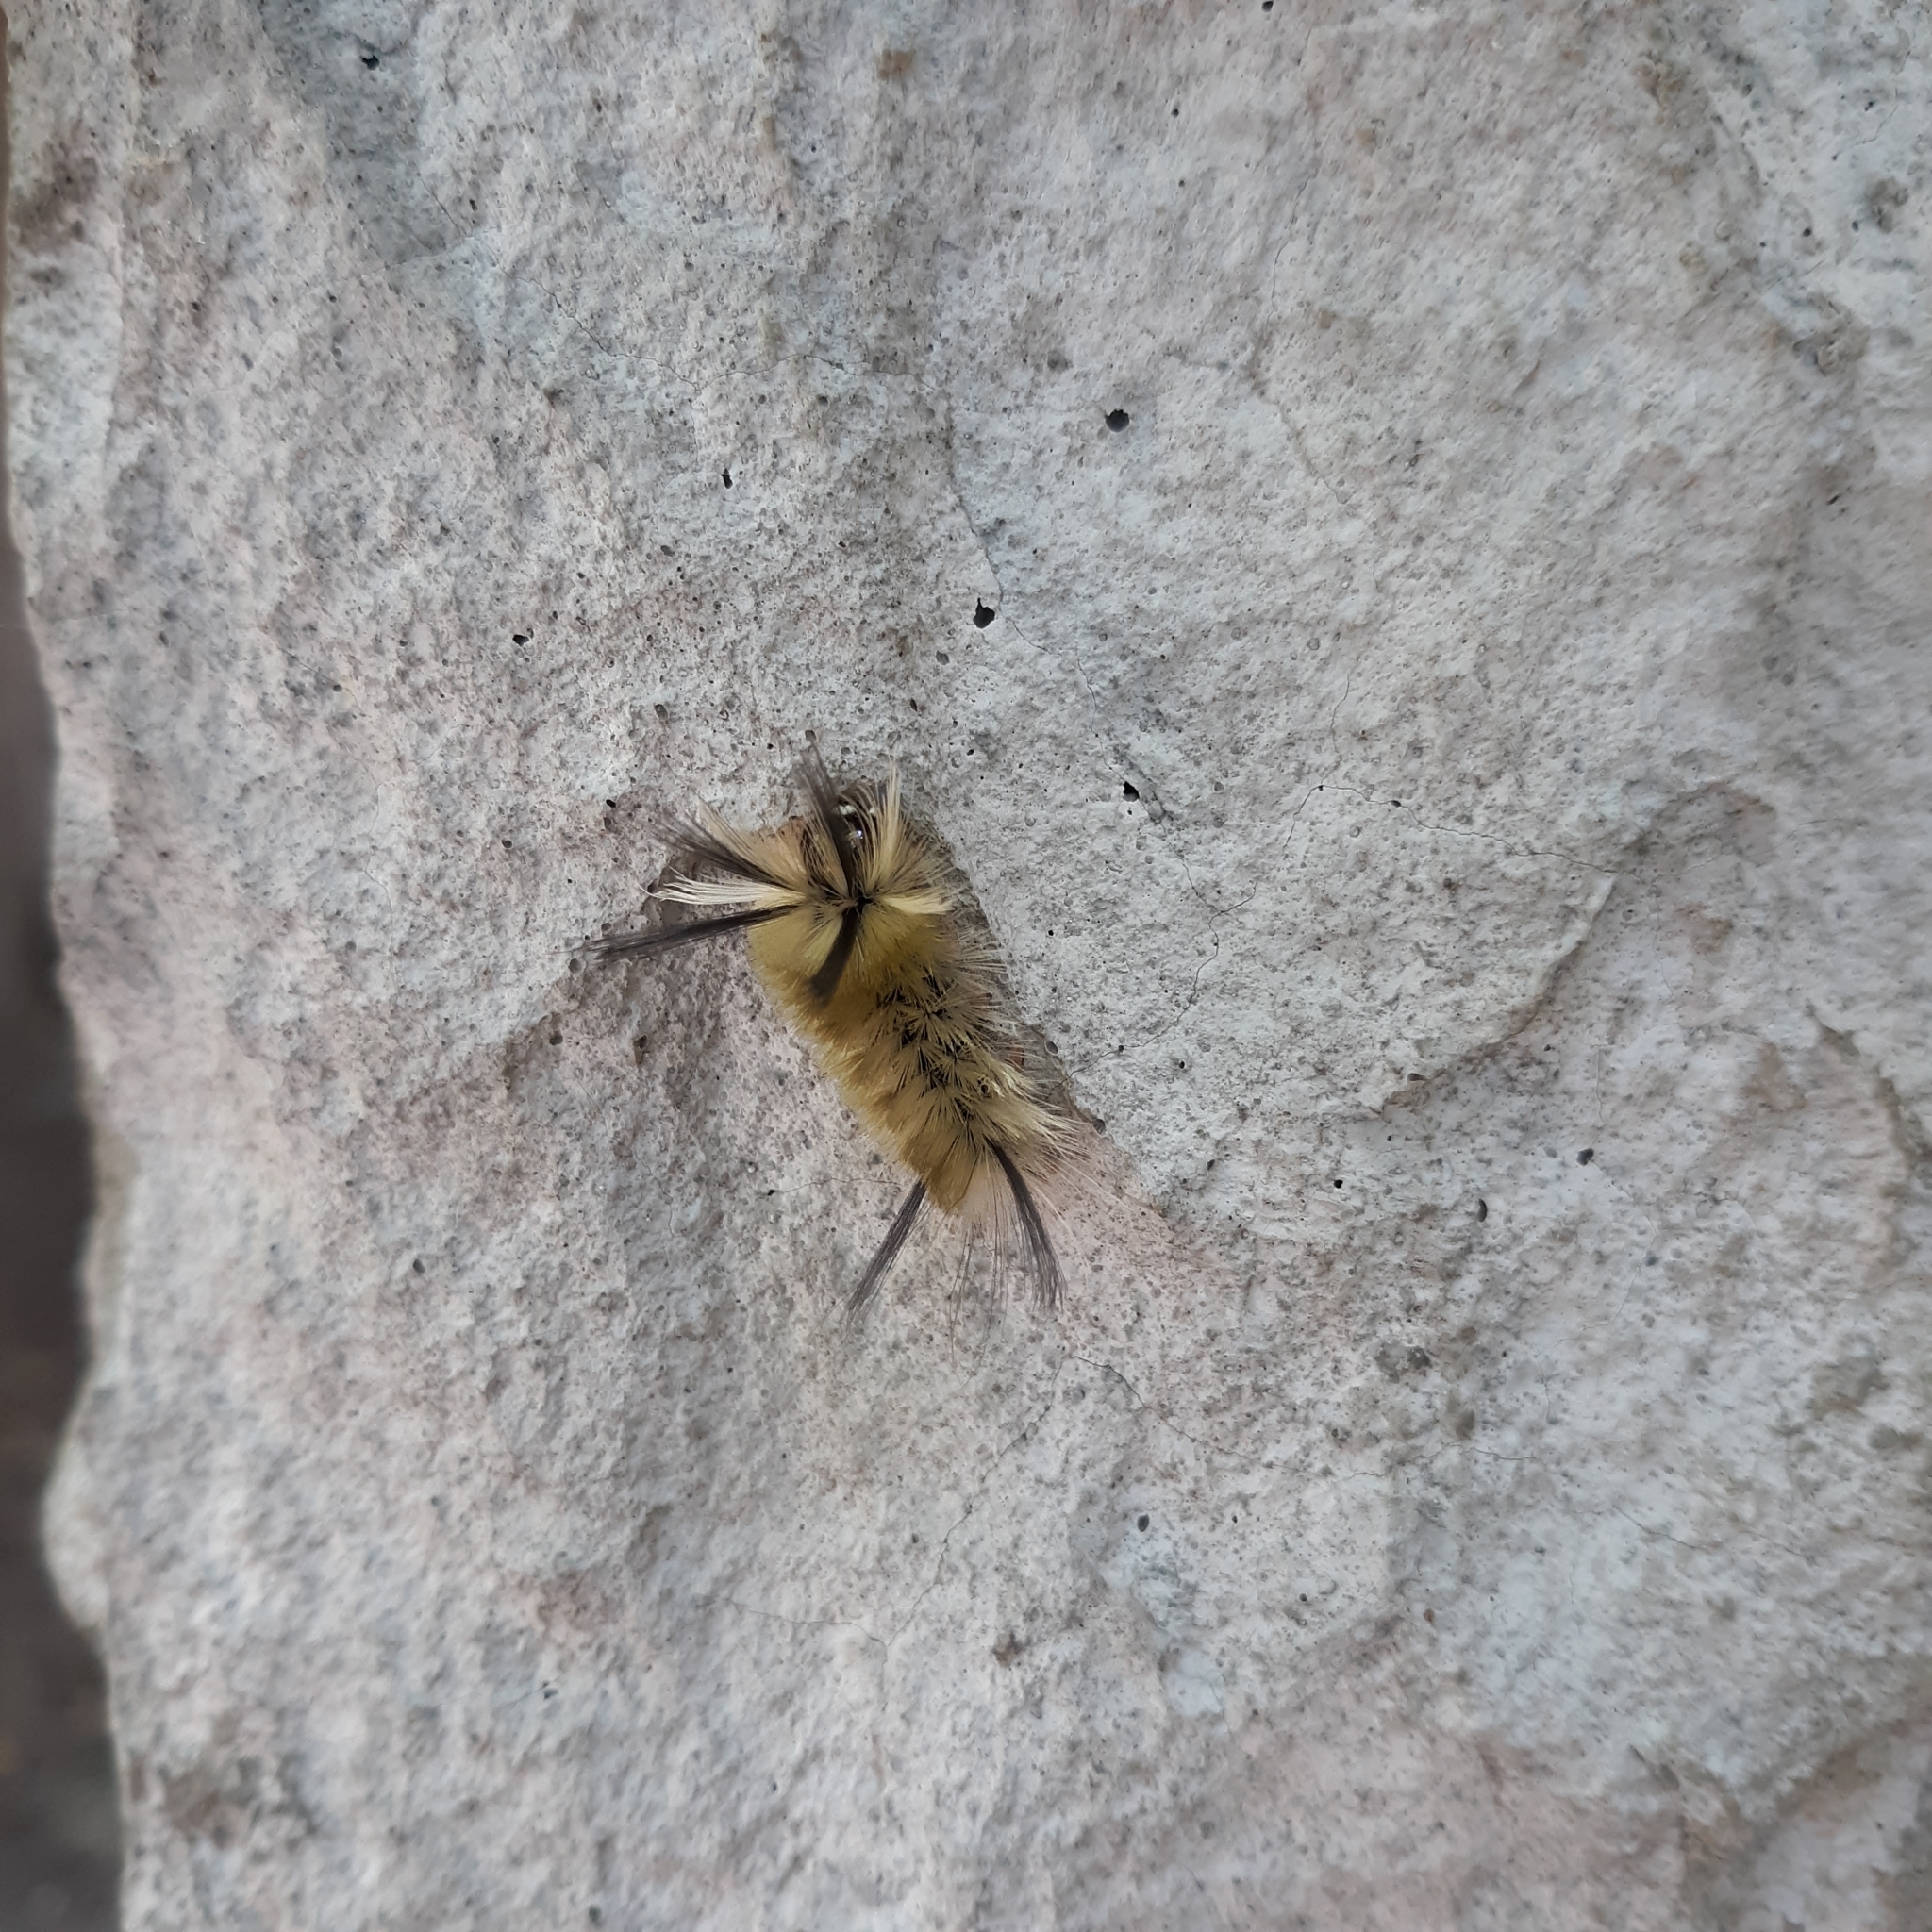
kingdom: Animalia
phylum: Arthropoda
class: Insecta
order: Lepidoptera
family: Erebidae
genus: Halysidota
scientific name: Halysidota tessellaris
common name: Banded tussock moth
